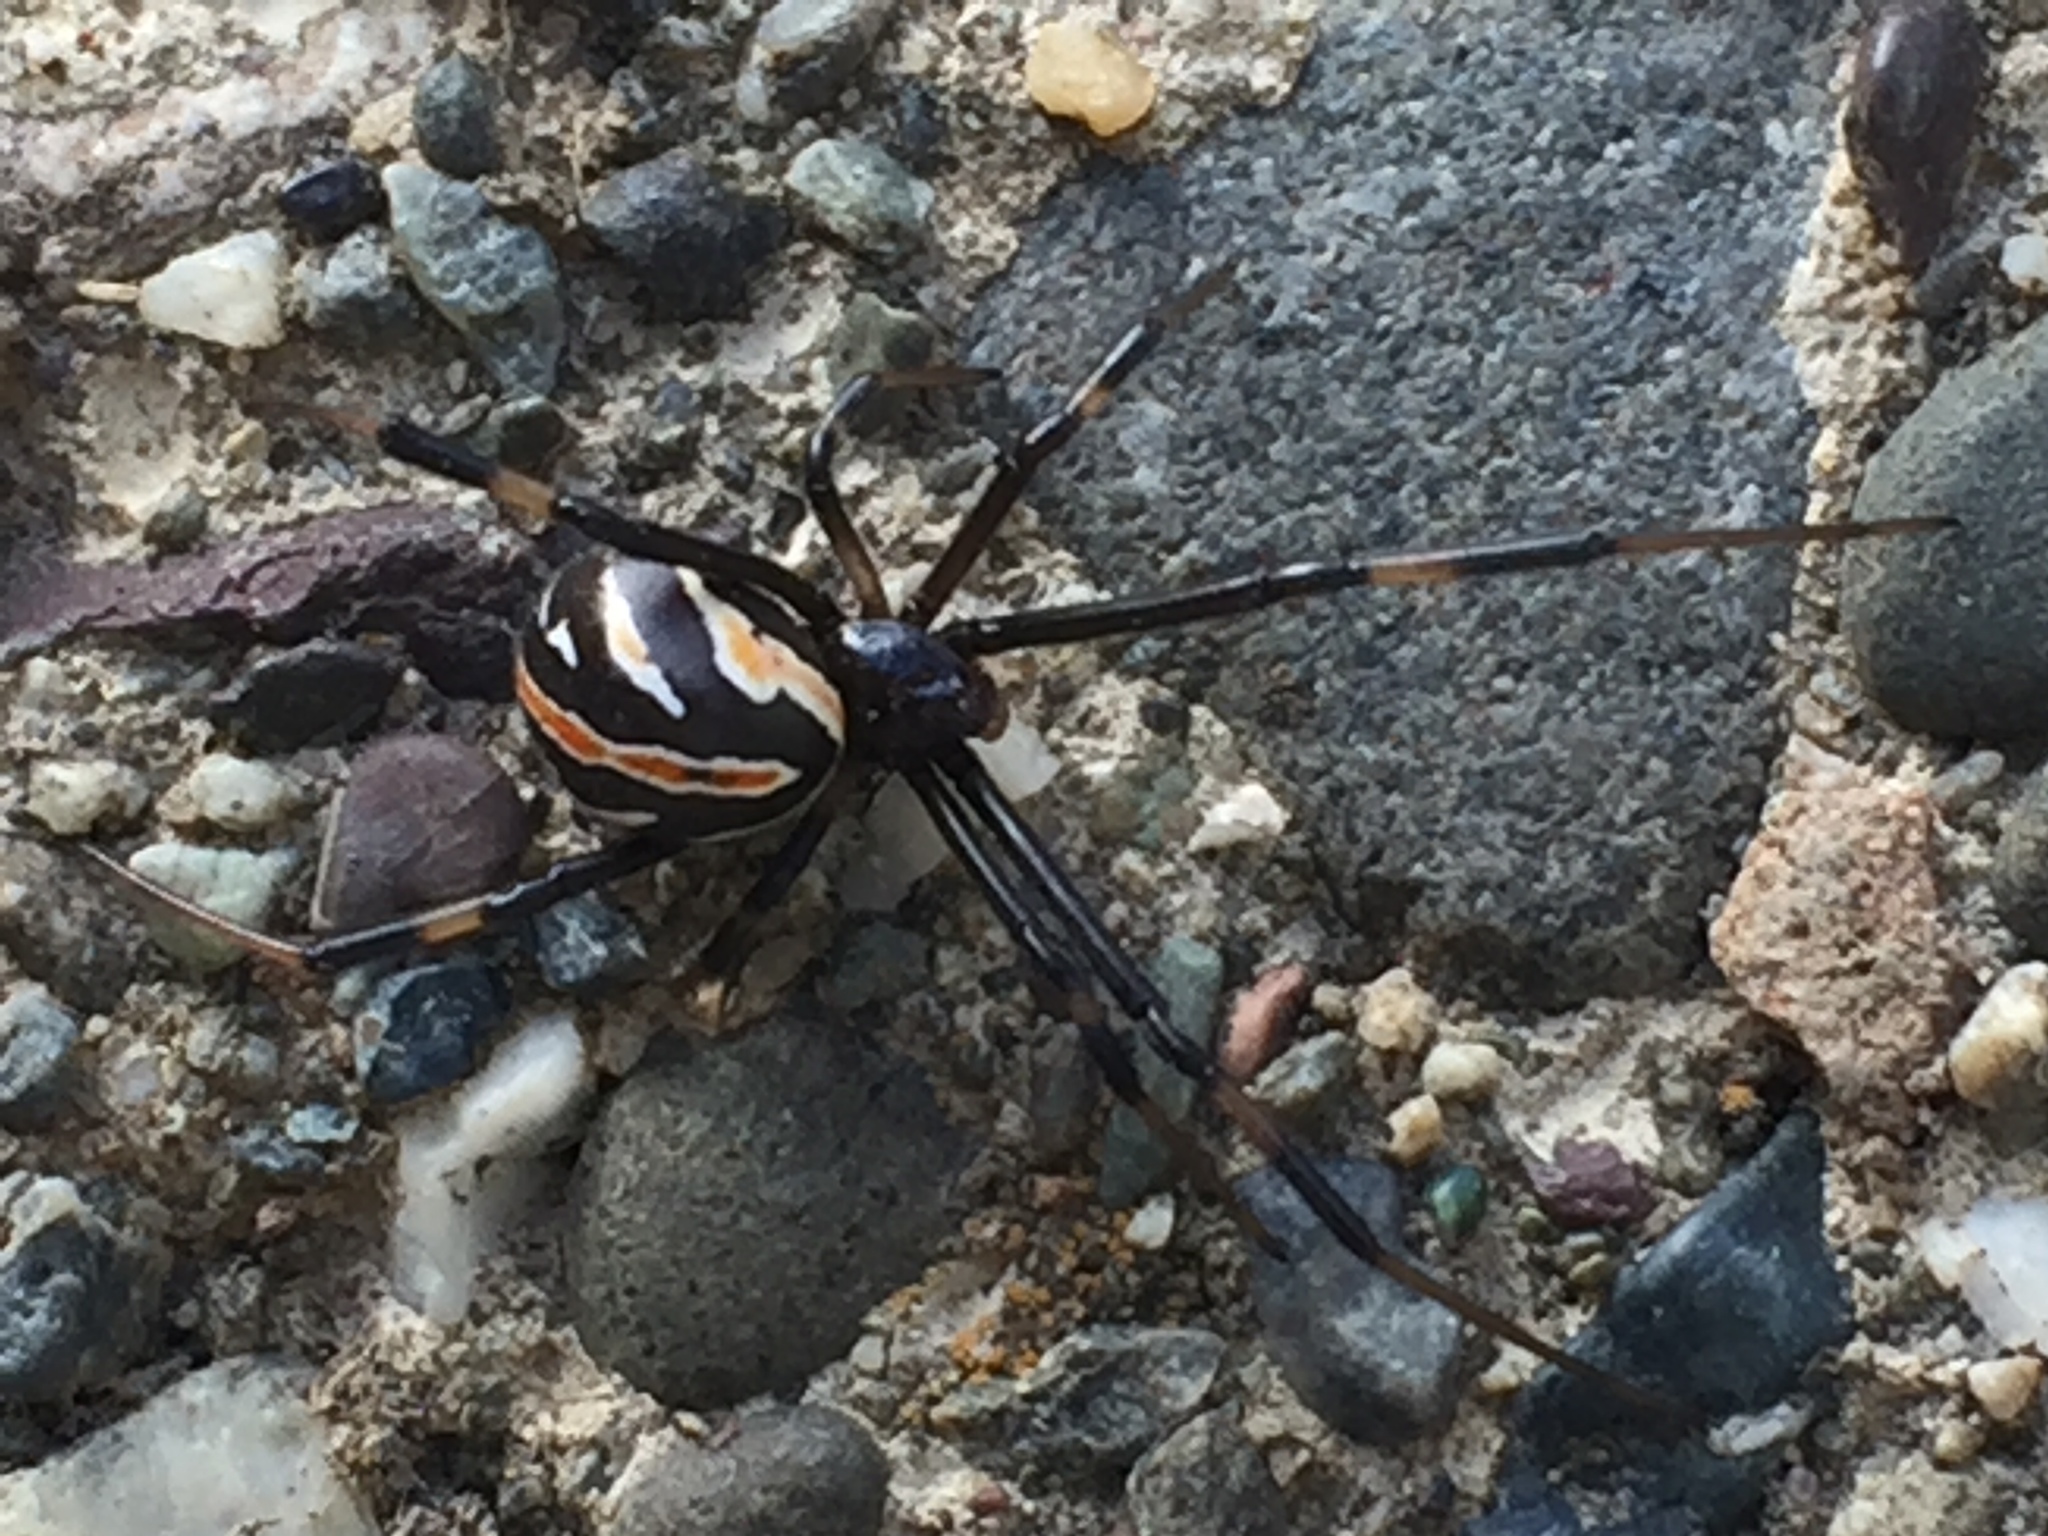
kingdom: Animalia
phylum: Arthropoda
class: Arachnida
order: Araneae
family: Theridiidae
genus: Latrodectus
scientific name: Latrodectus hesperus
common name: Western black widow
